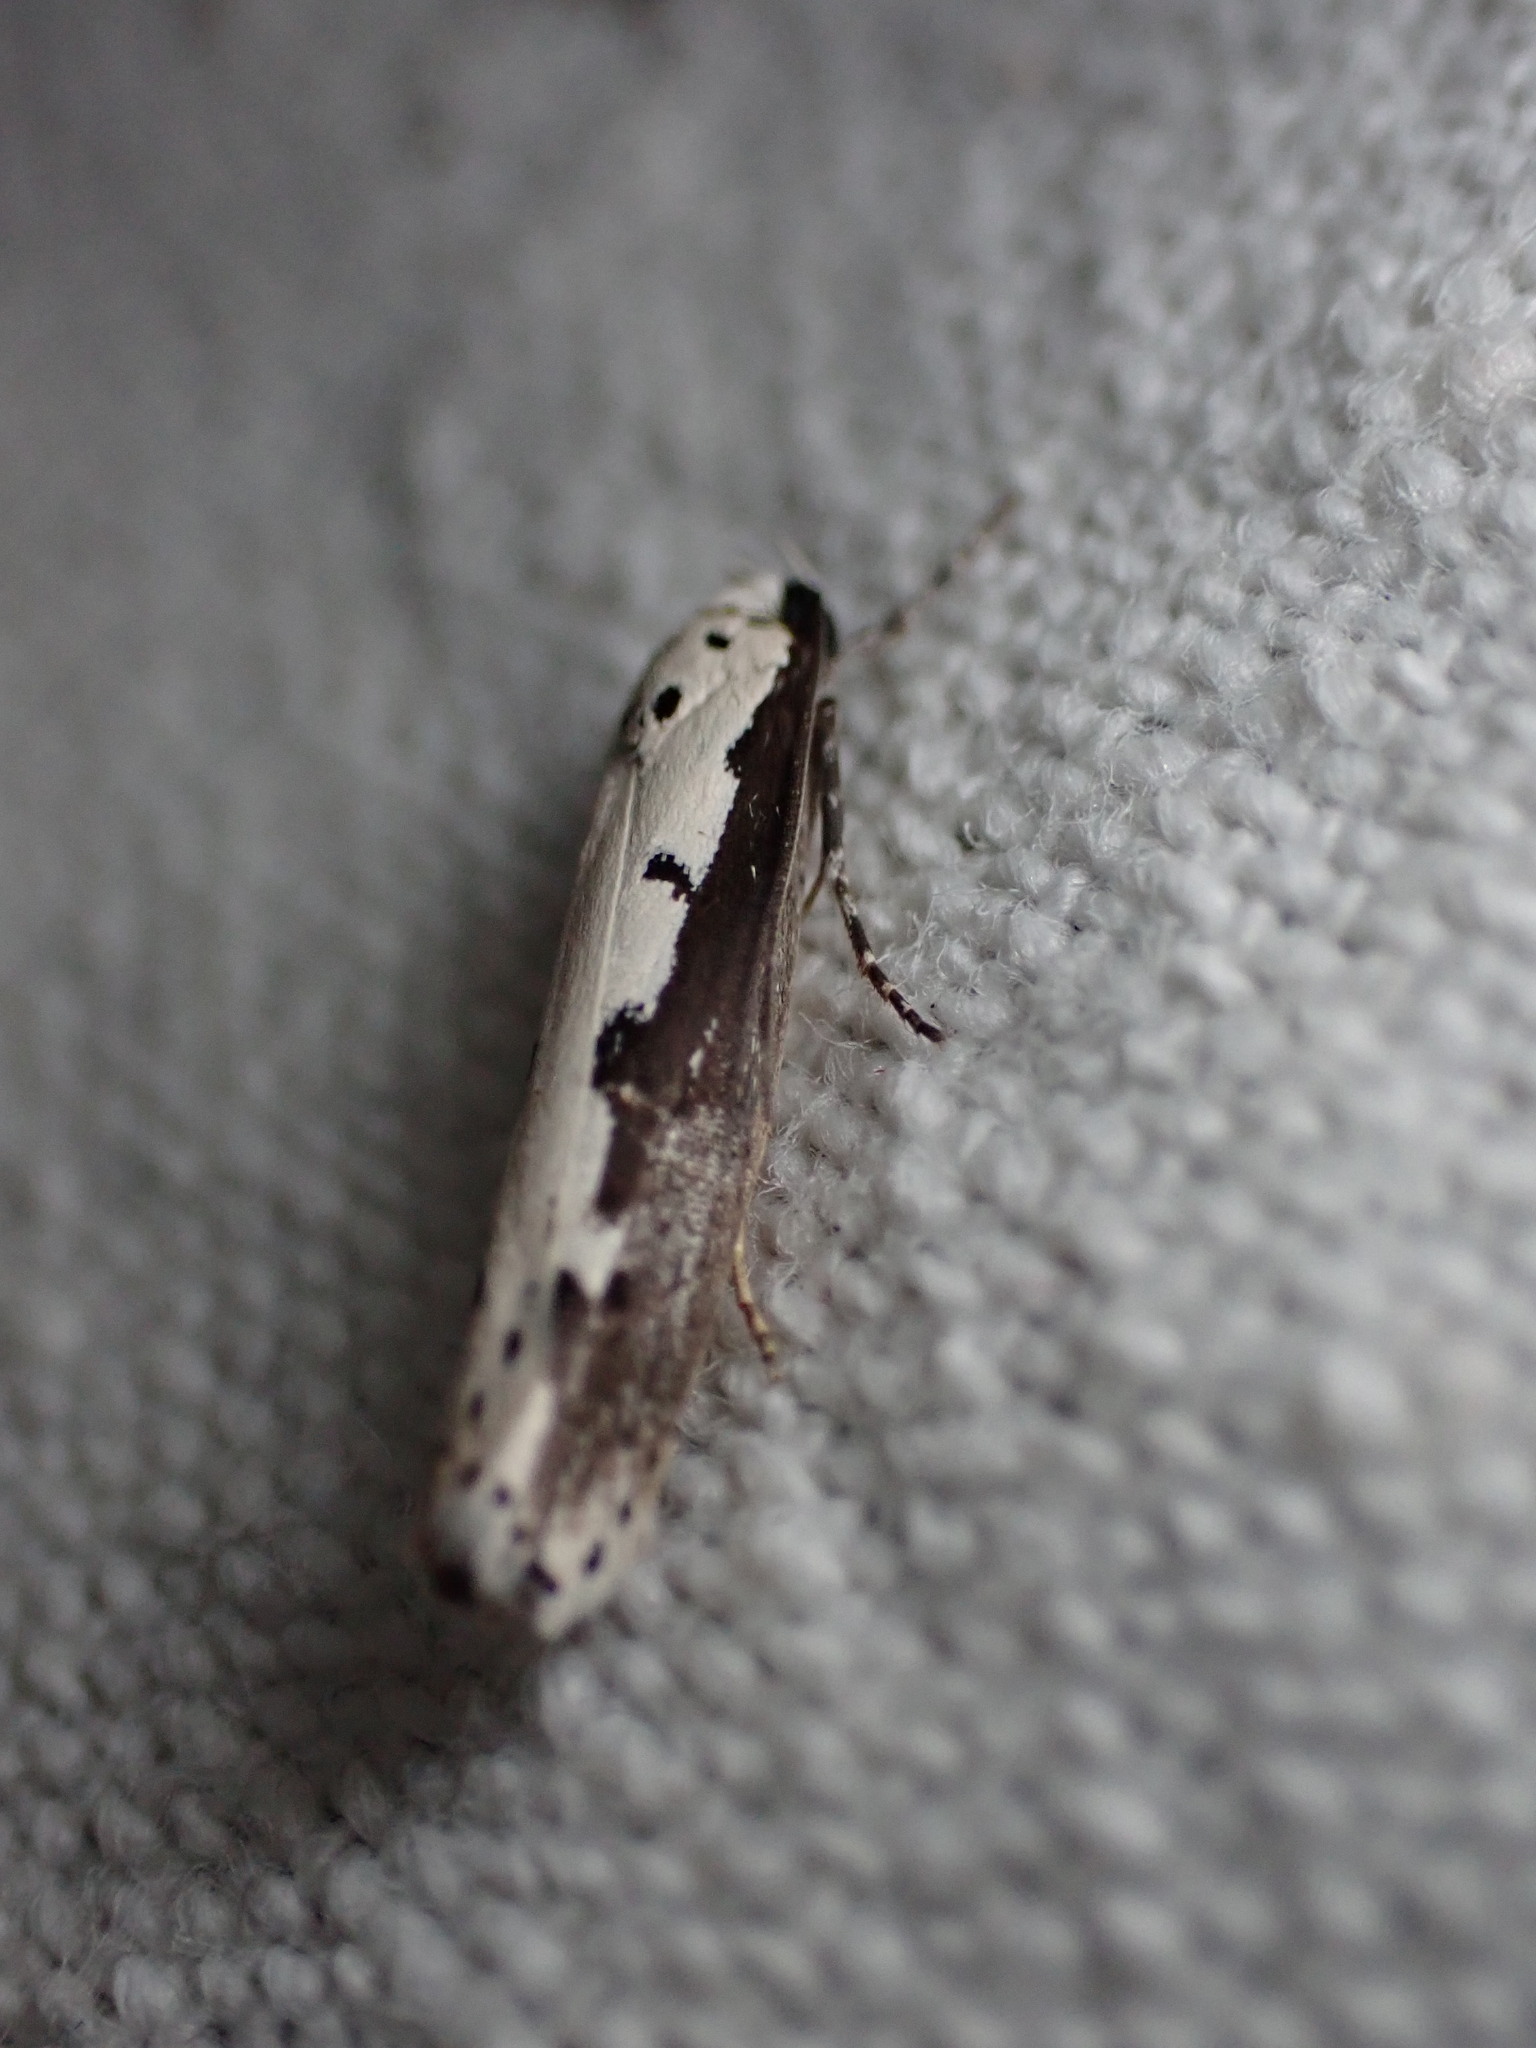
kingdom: Animalia
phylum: Arthropoda
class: Insecta
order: Lepidoptera
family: Ethmiidae
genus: Ethmia
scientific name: Ethmia bipunctella
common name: Bordered ermel
